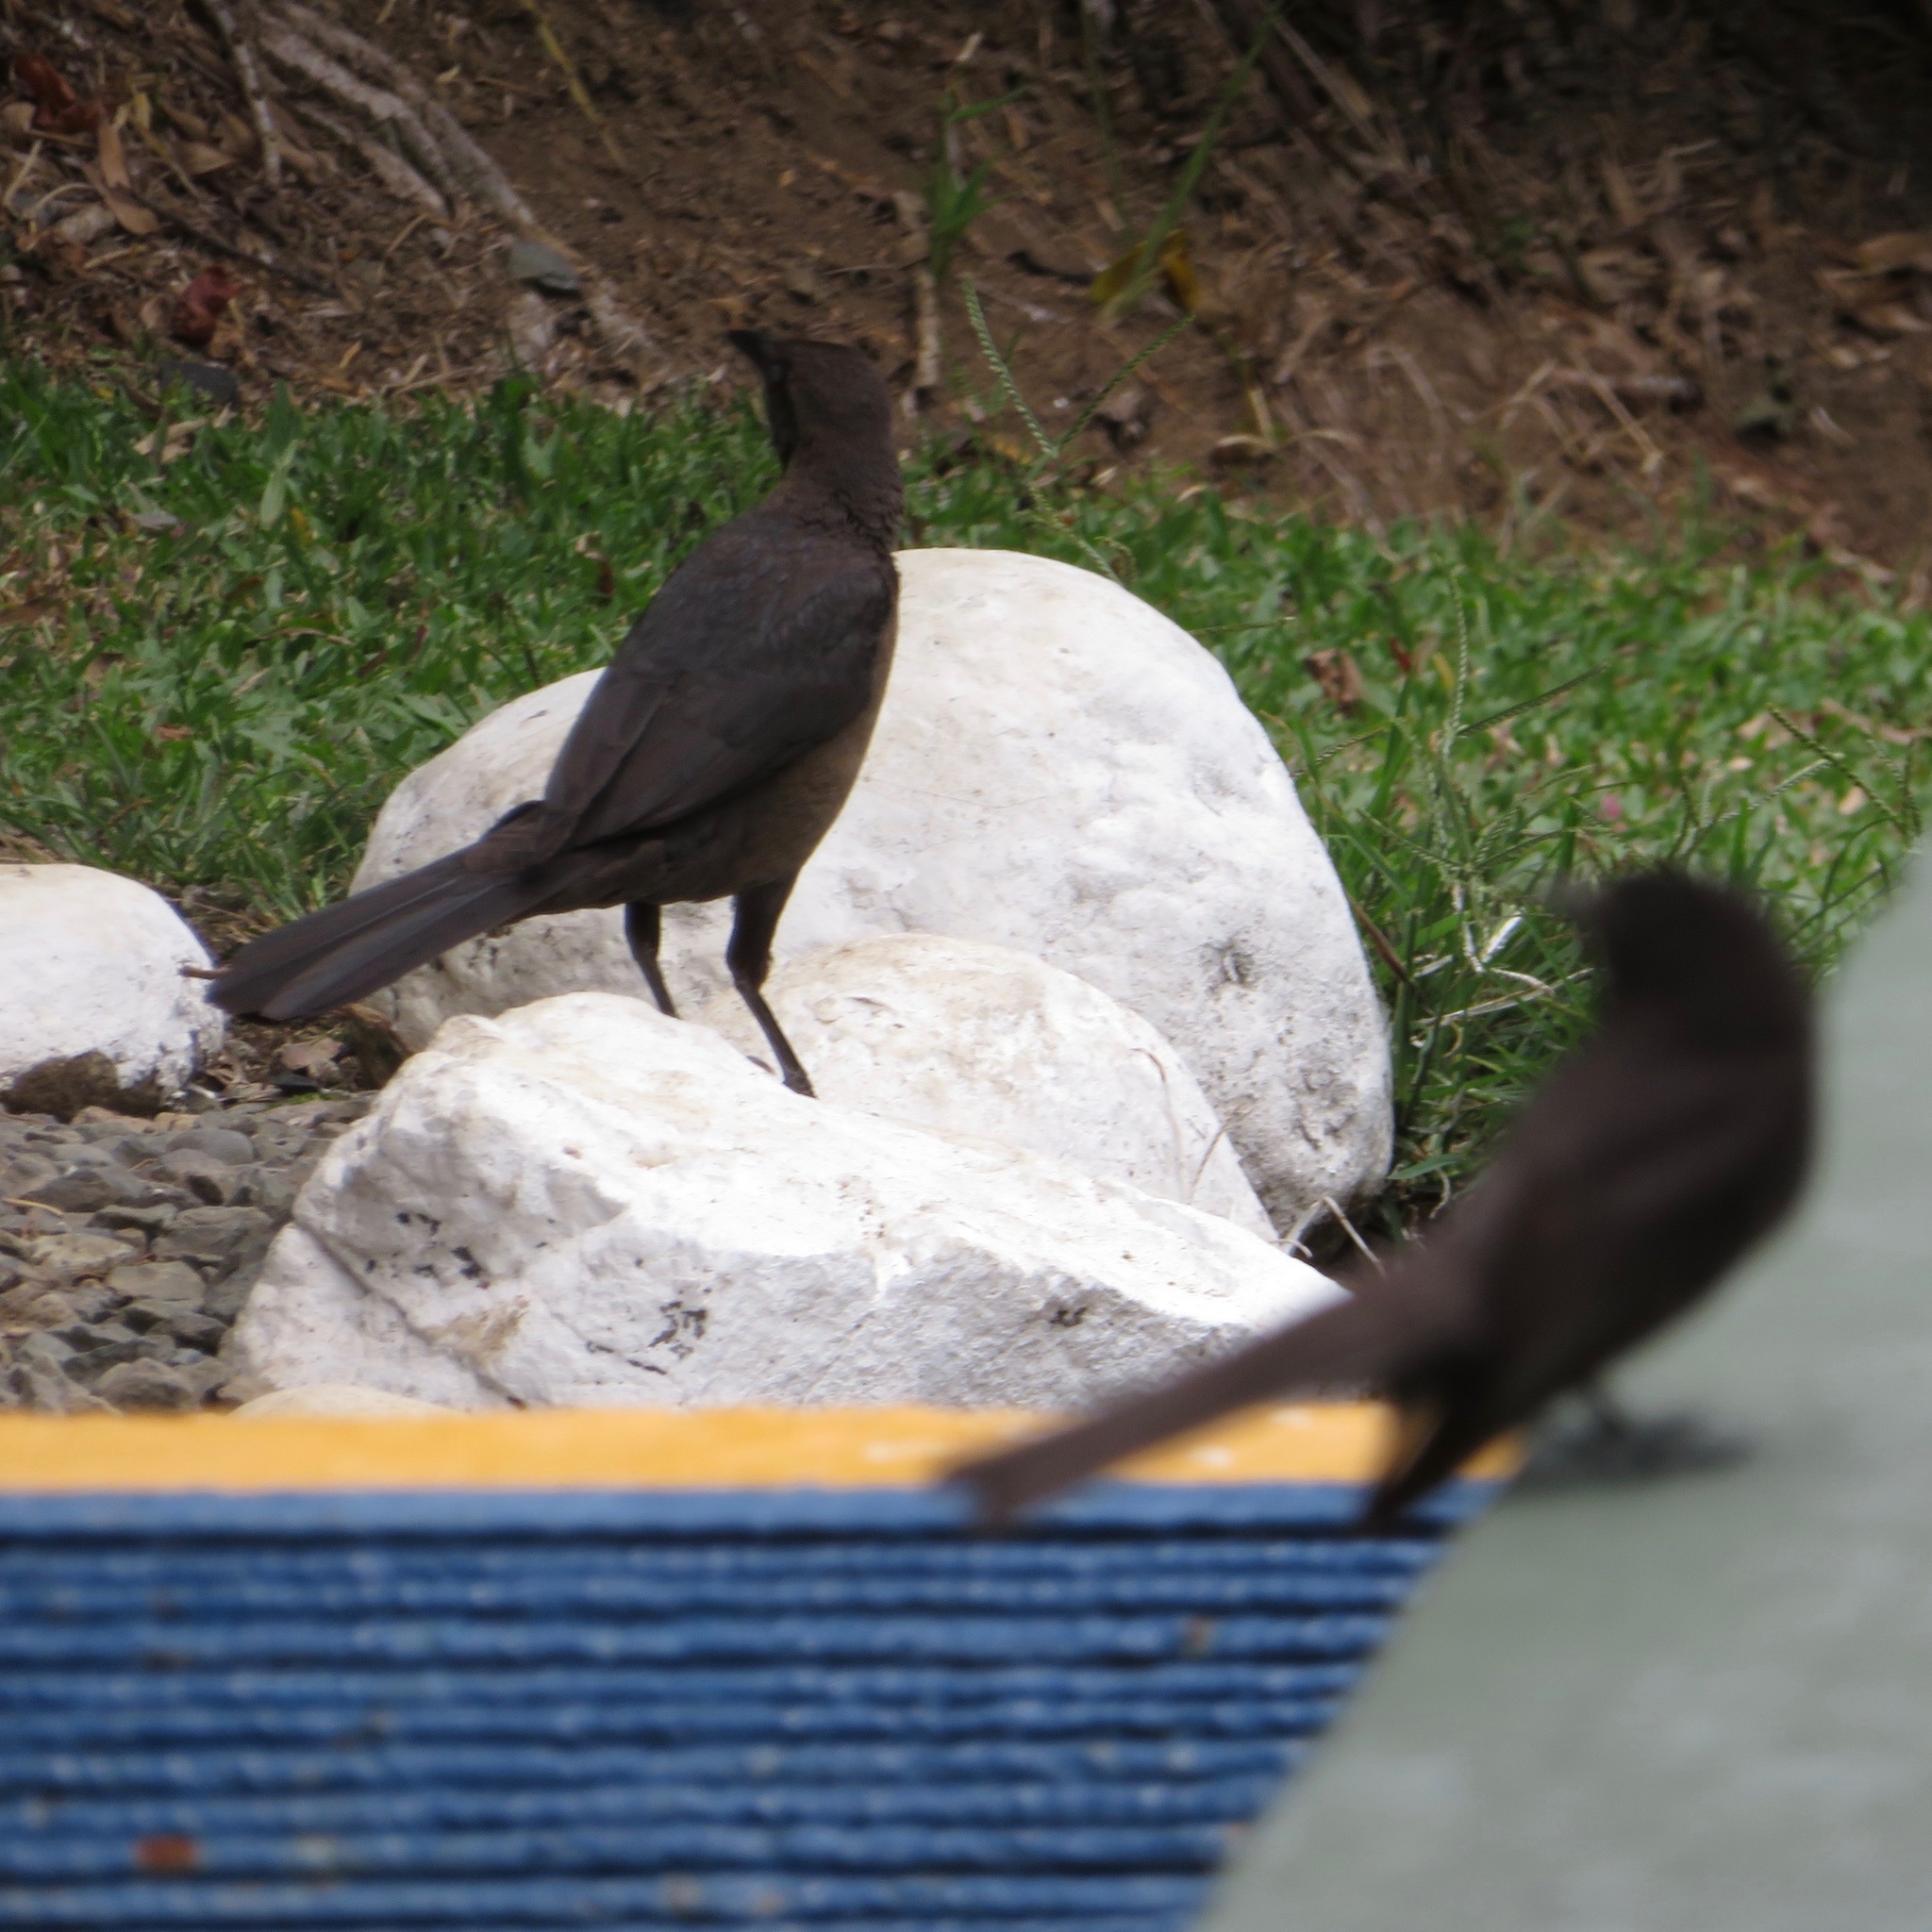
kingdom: Animalia
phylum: Chordata
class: Aves
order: Passeriformes
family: Icteridae
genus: Quiscalus
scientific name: Quiscalus mexicanus
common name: Great-tailed grackle
